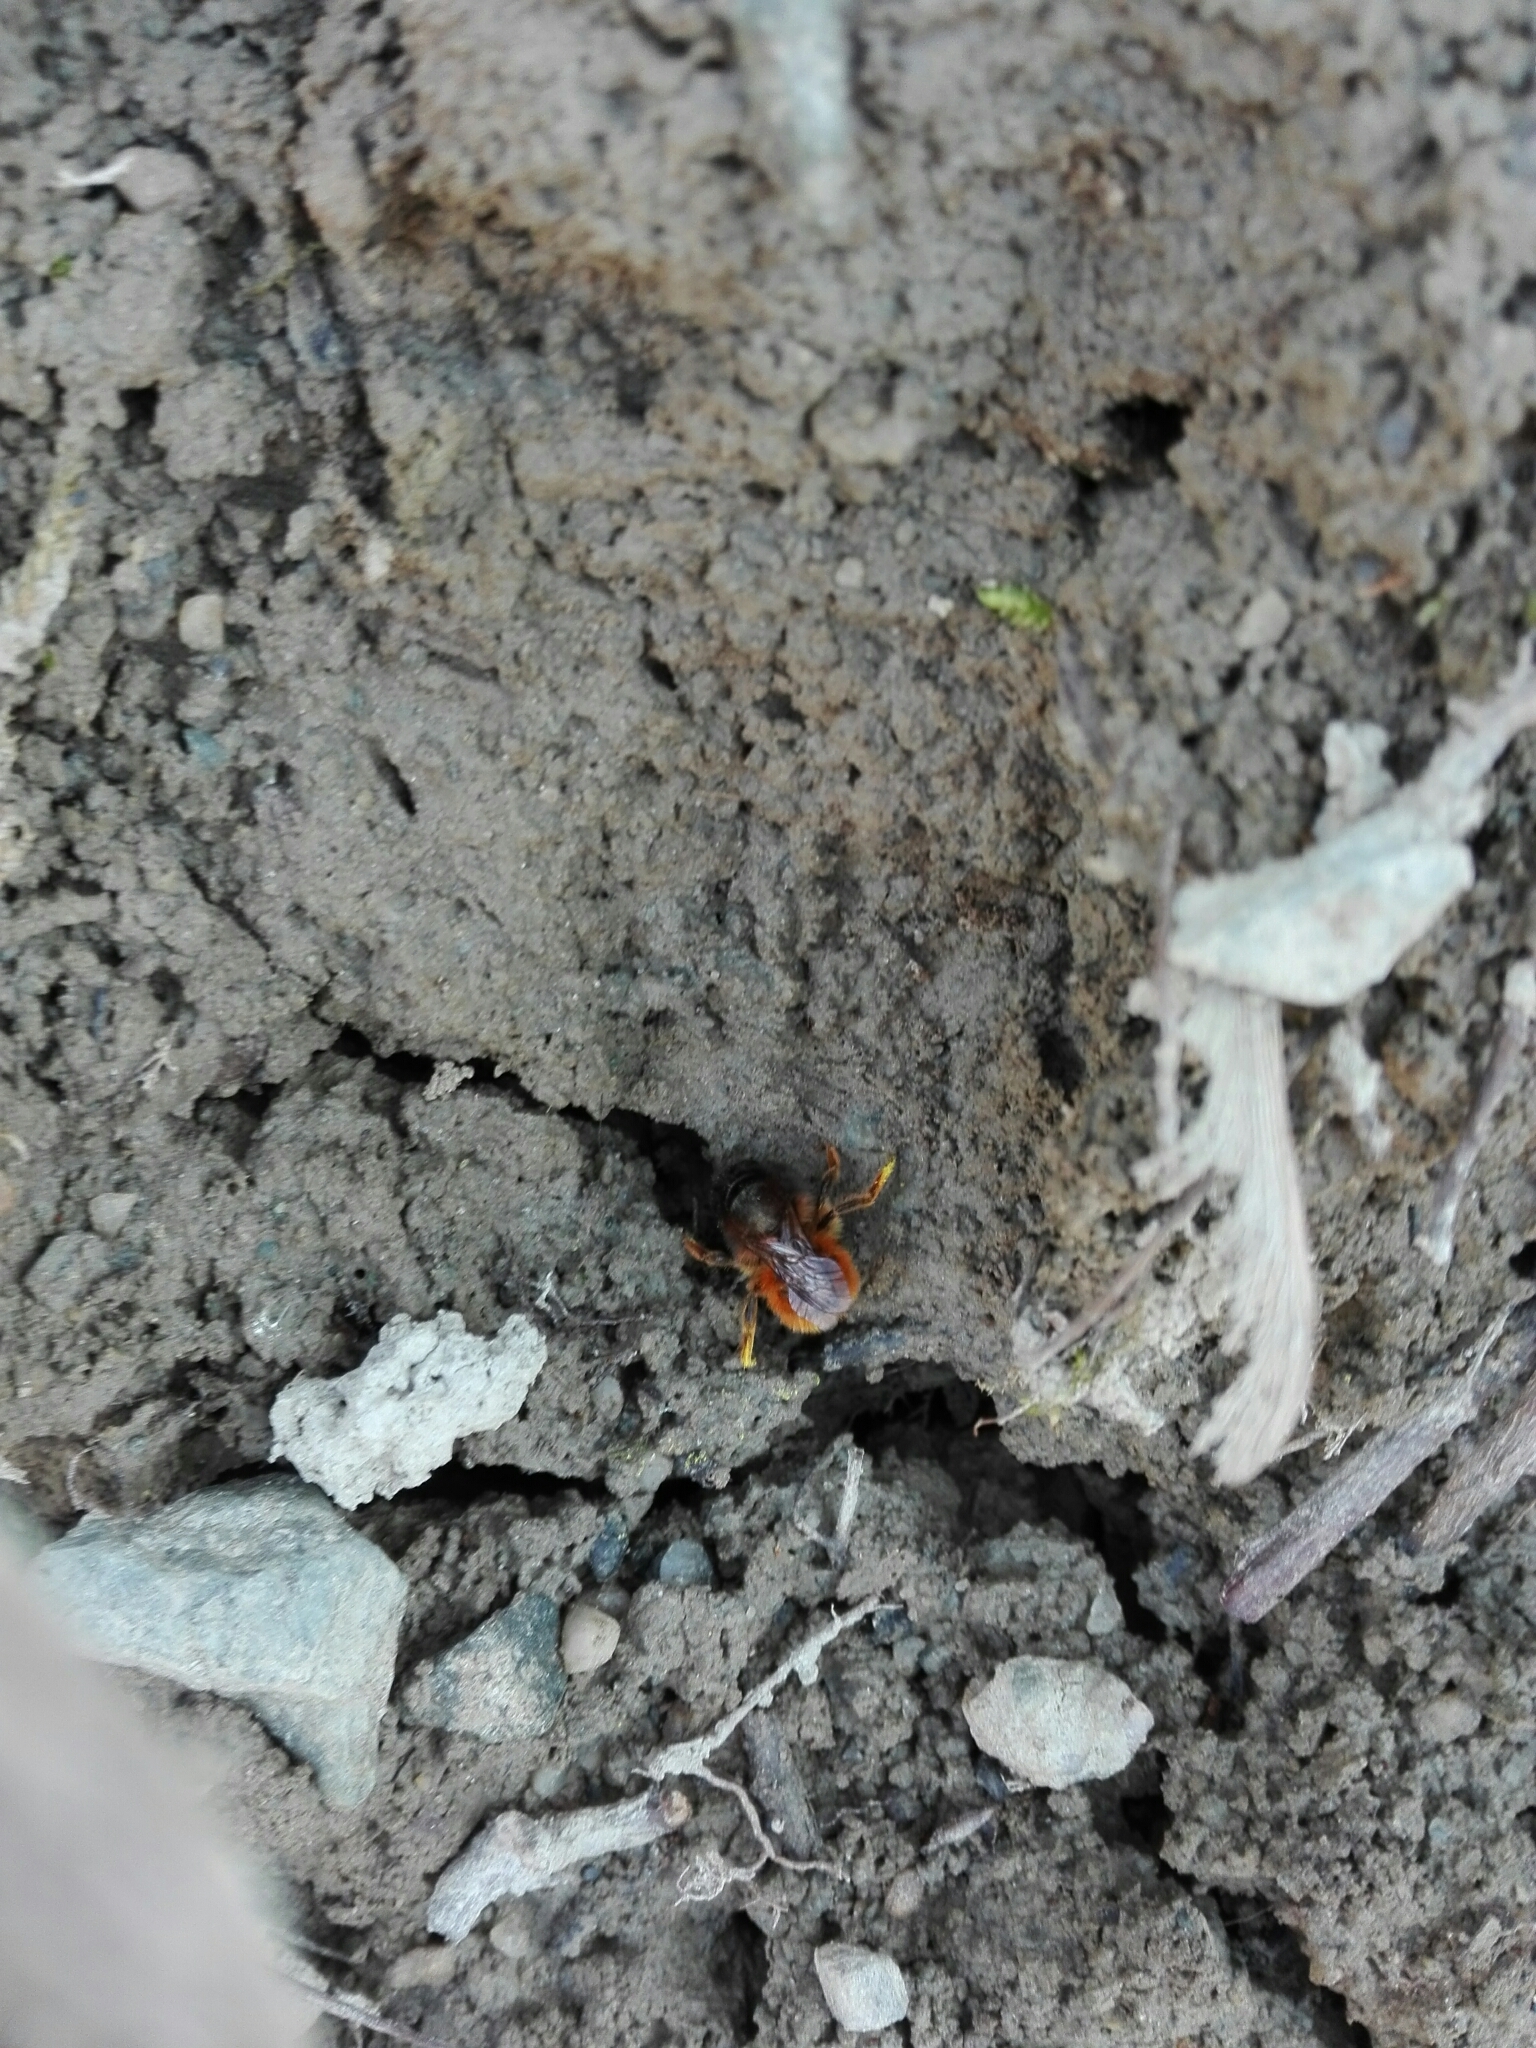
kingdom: Animalia
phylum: Arthropoda
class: Insecta
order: Hymenoptera
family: Megachilidae
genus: Osmia
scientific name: Osmia bicornis
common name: Red mason bee
